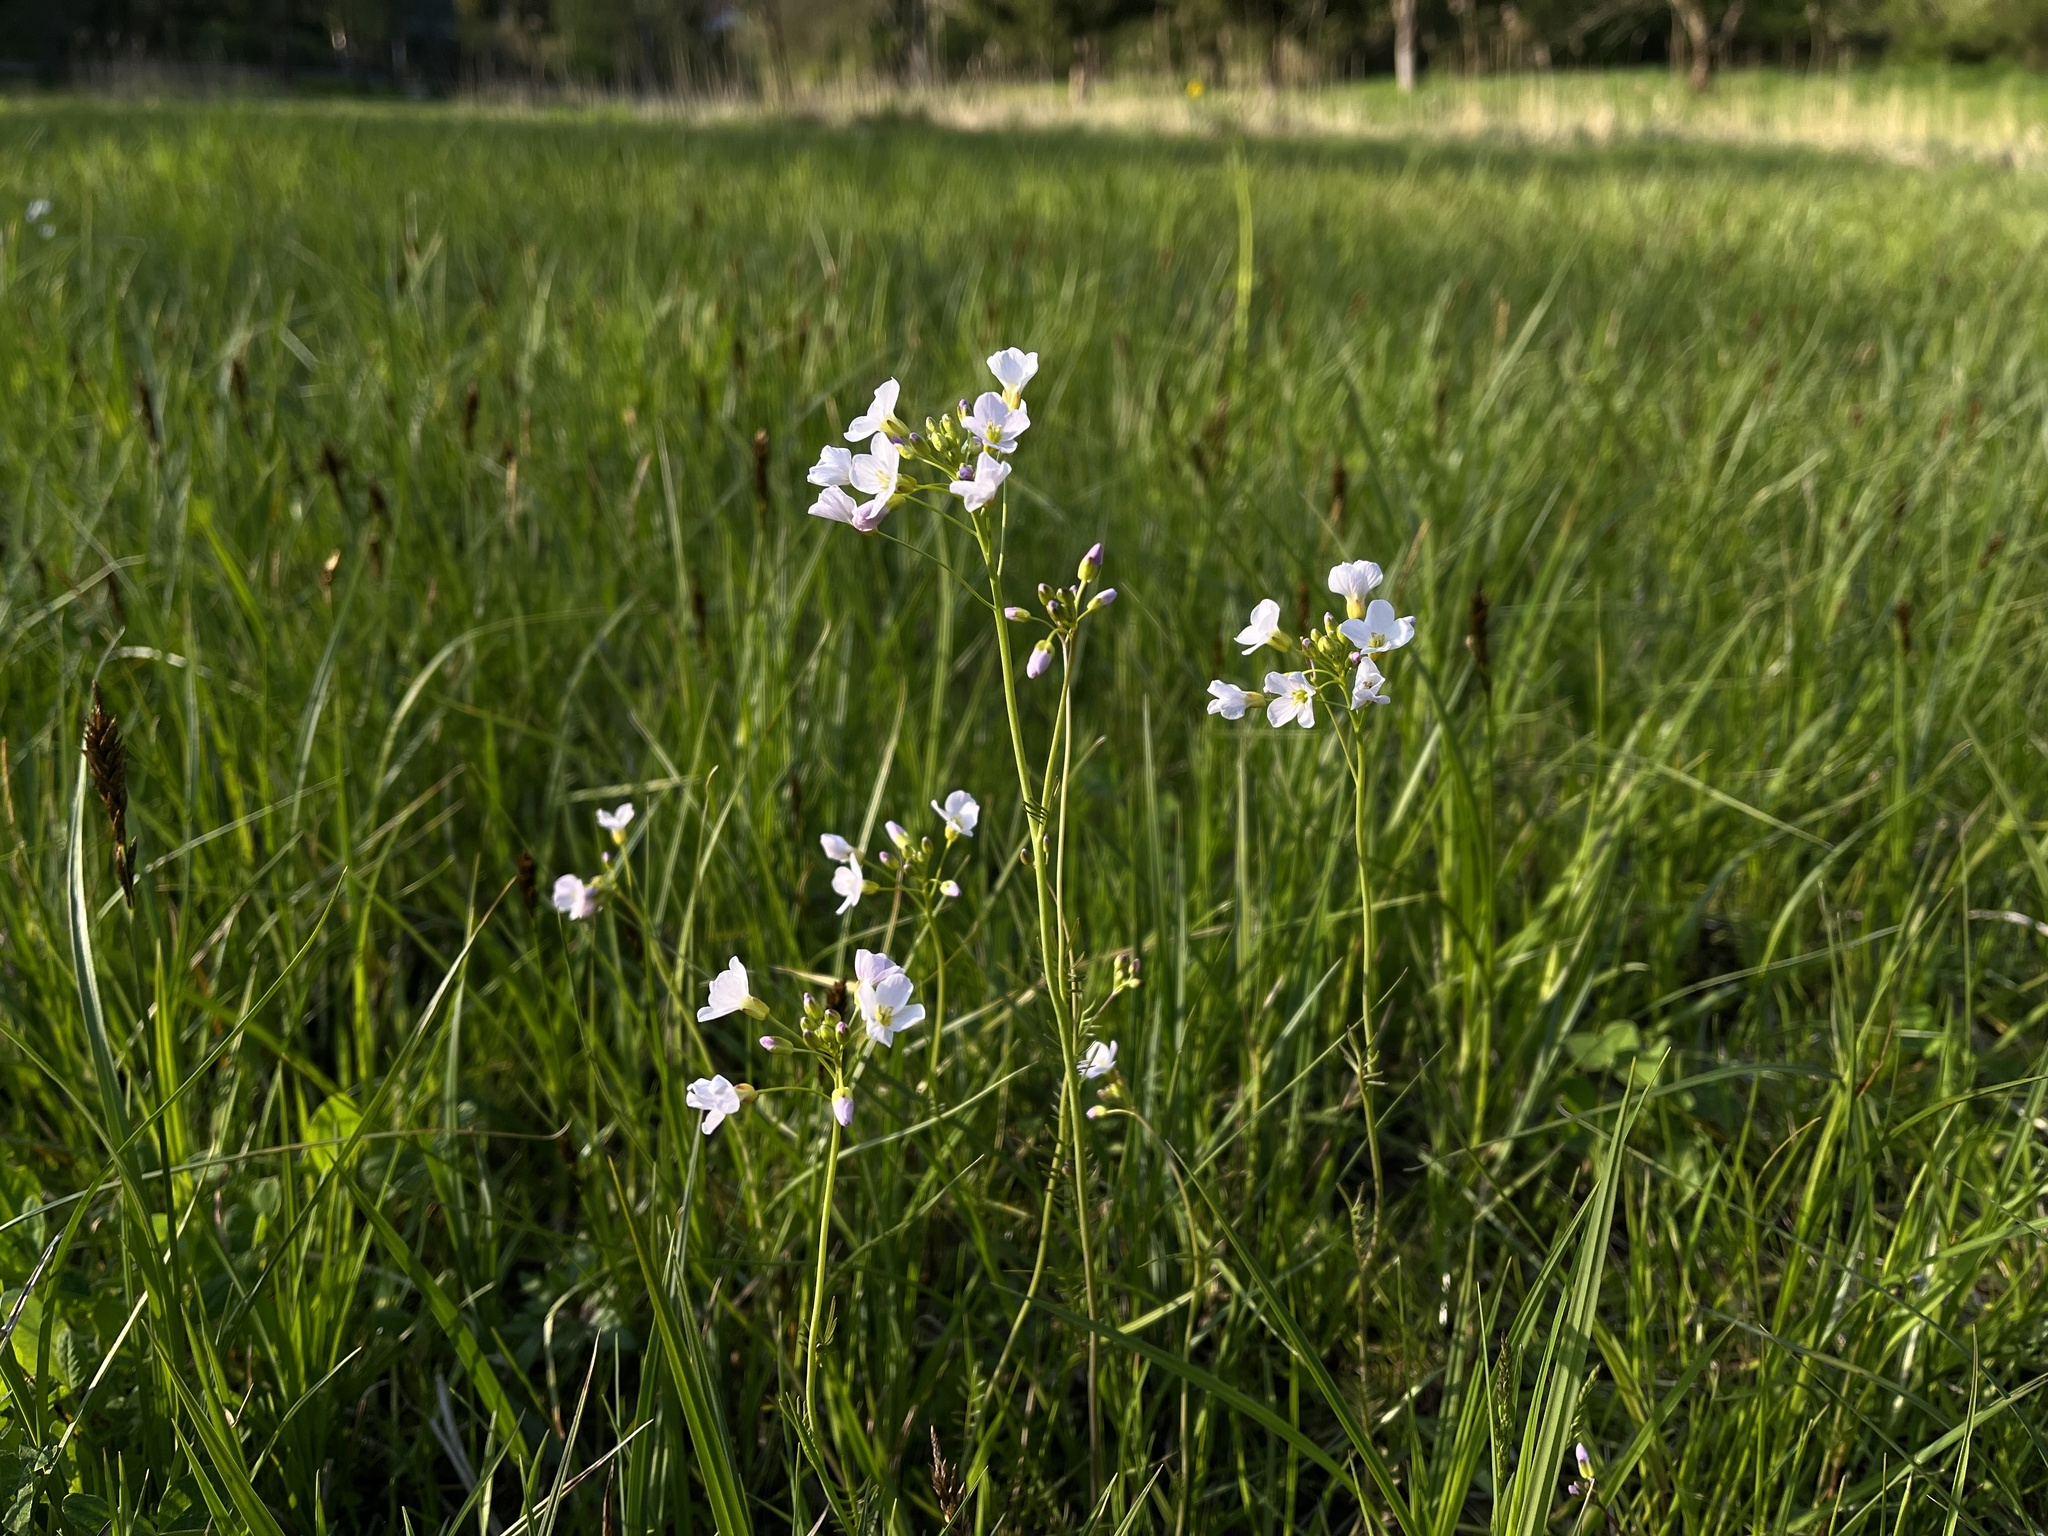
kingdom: Plantae
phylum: Tracheophyta
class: Magnoliopsida
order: Brassicales
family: Brassicaceae
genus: Cardamine
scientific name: Cardamine pratensis
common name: Cuckoo flower
